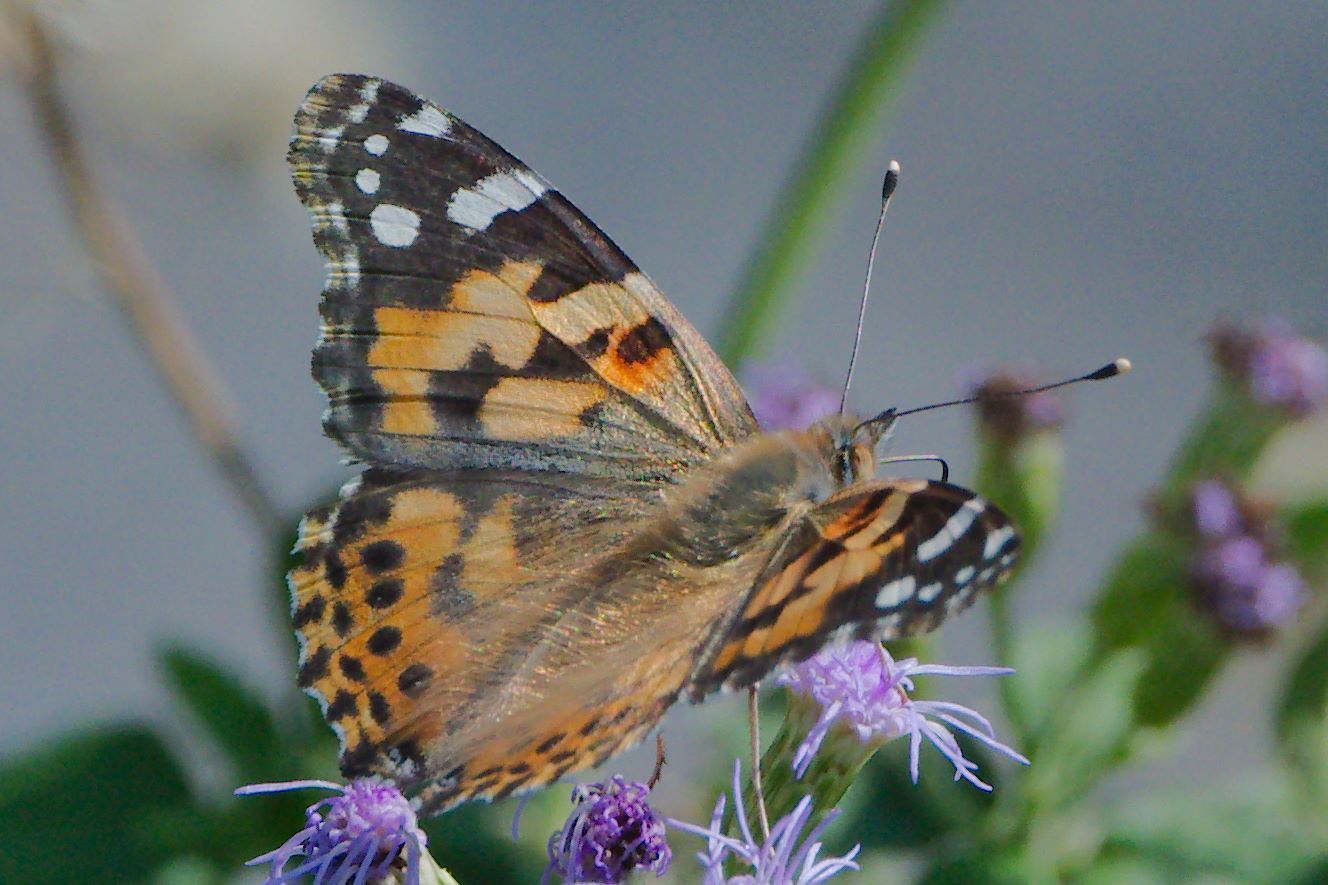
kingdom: Animalia
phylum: Arthropoda
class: Insecta
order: Lepidoptera
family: Nymphalidae
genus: Vanessa
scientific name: Vanessa cardui
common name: Painted lady
